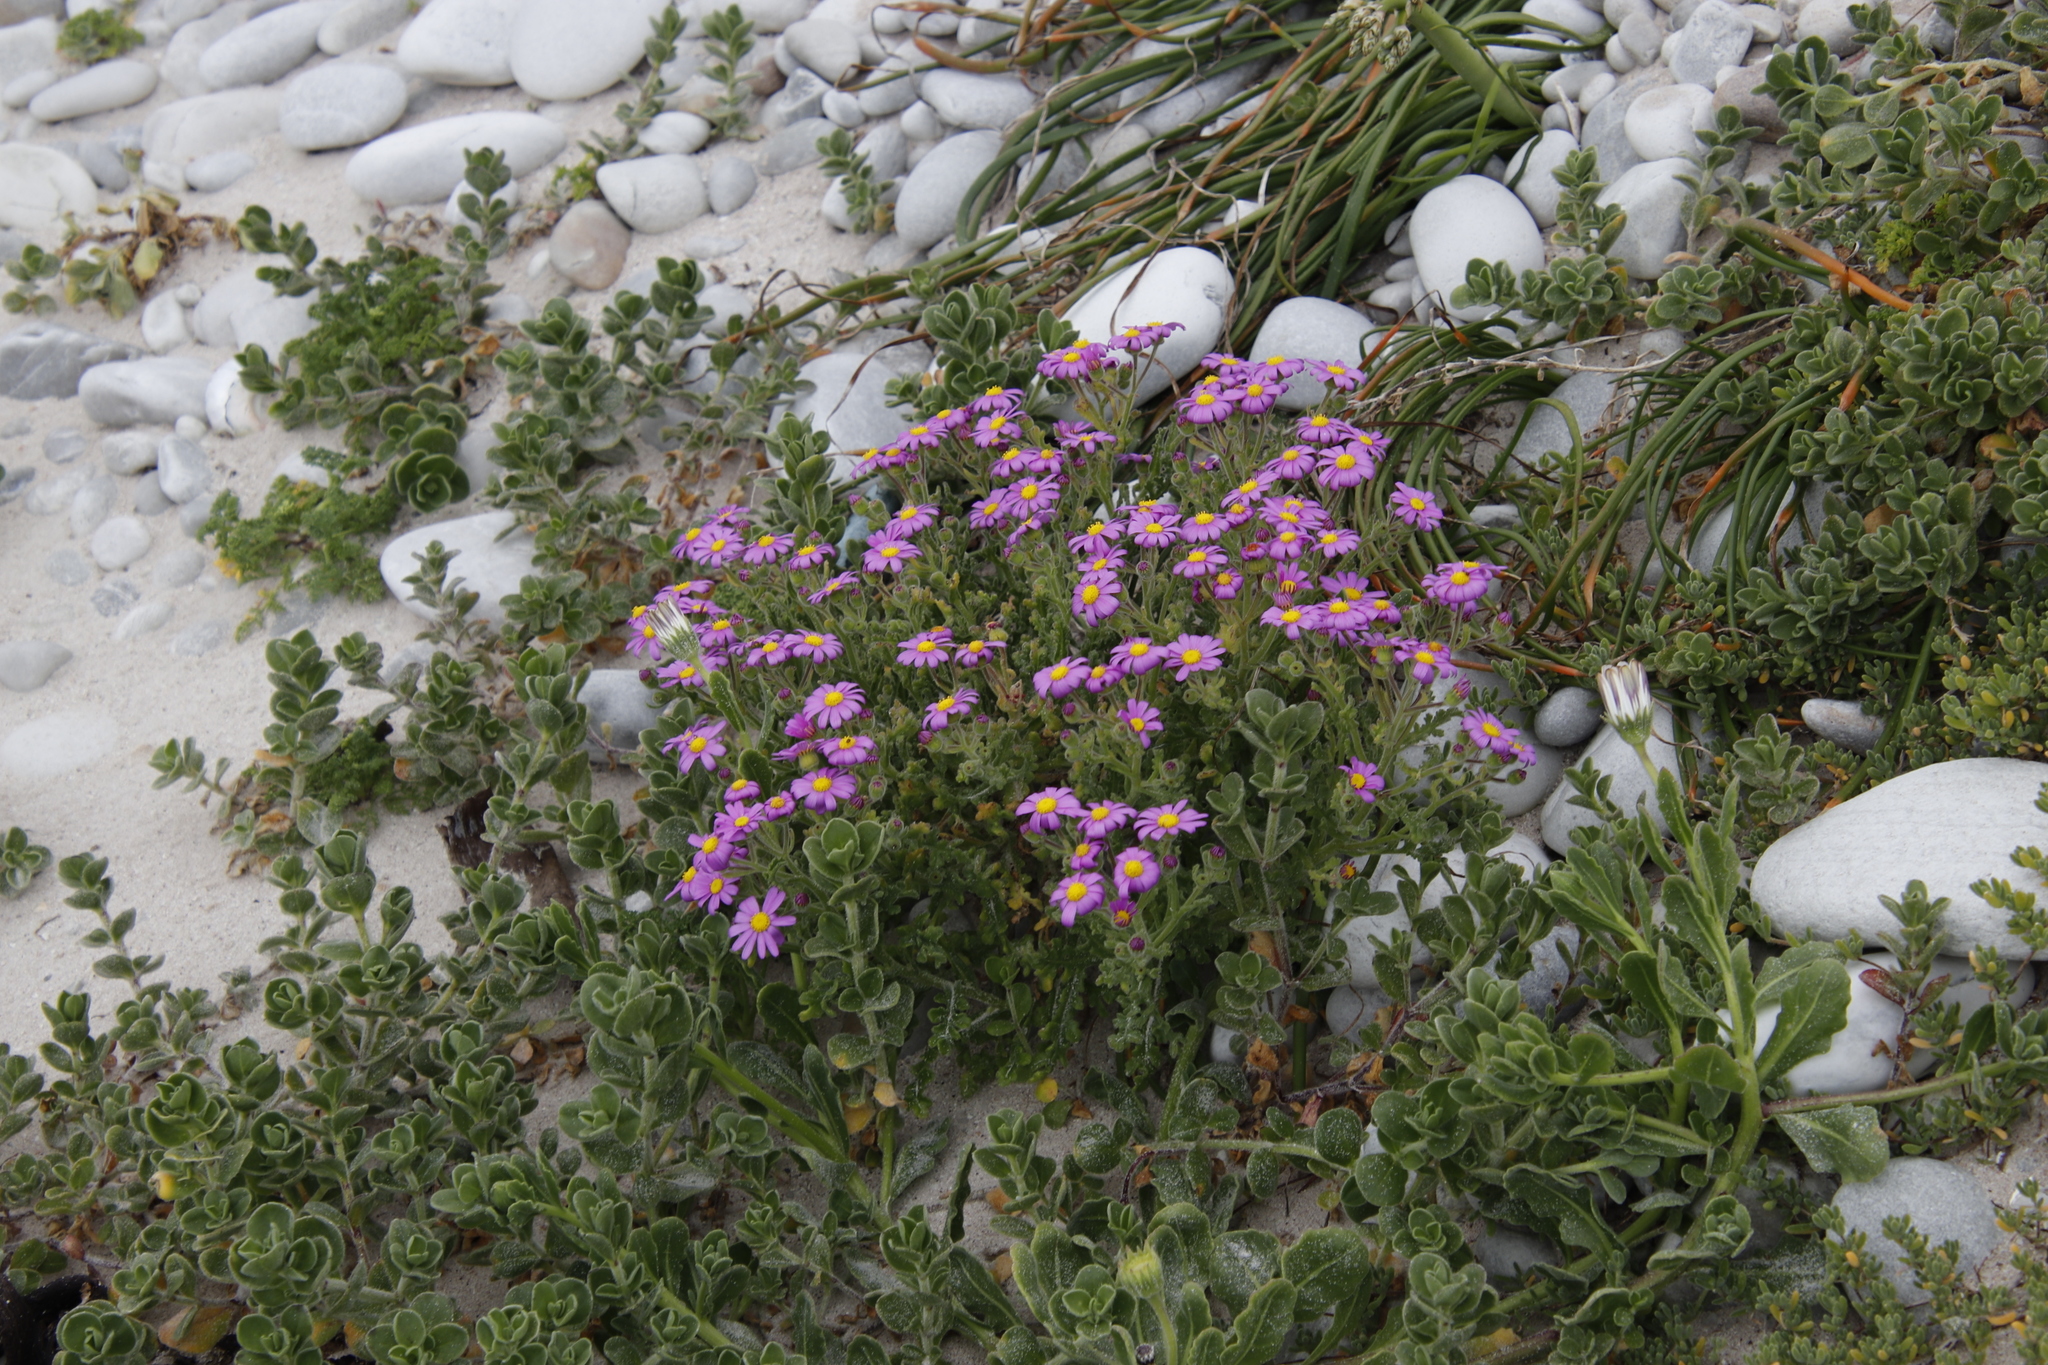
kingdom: Plantae
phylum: Tracheophyta
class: Magnoliopsida
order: Asterales
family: Asteraceae
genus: Senecio
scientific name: Senecio elegans
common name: Purple groundsel
